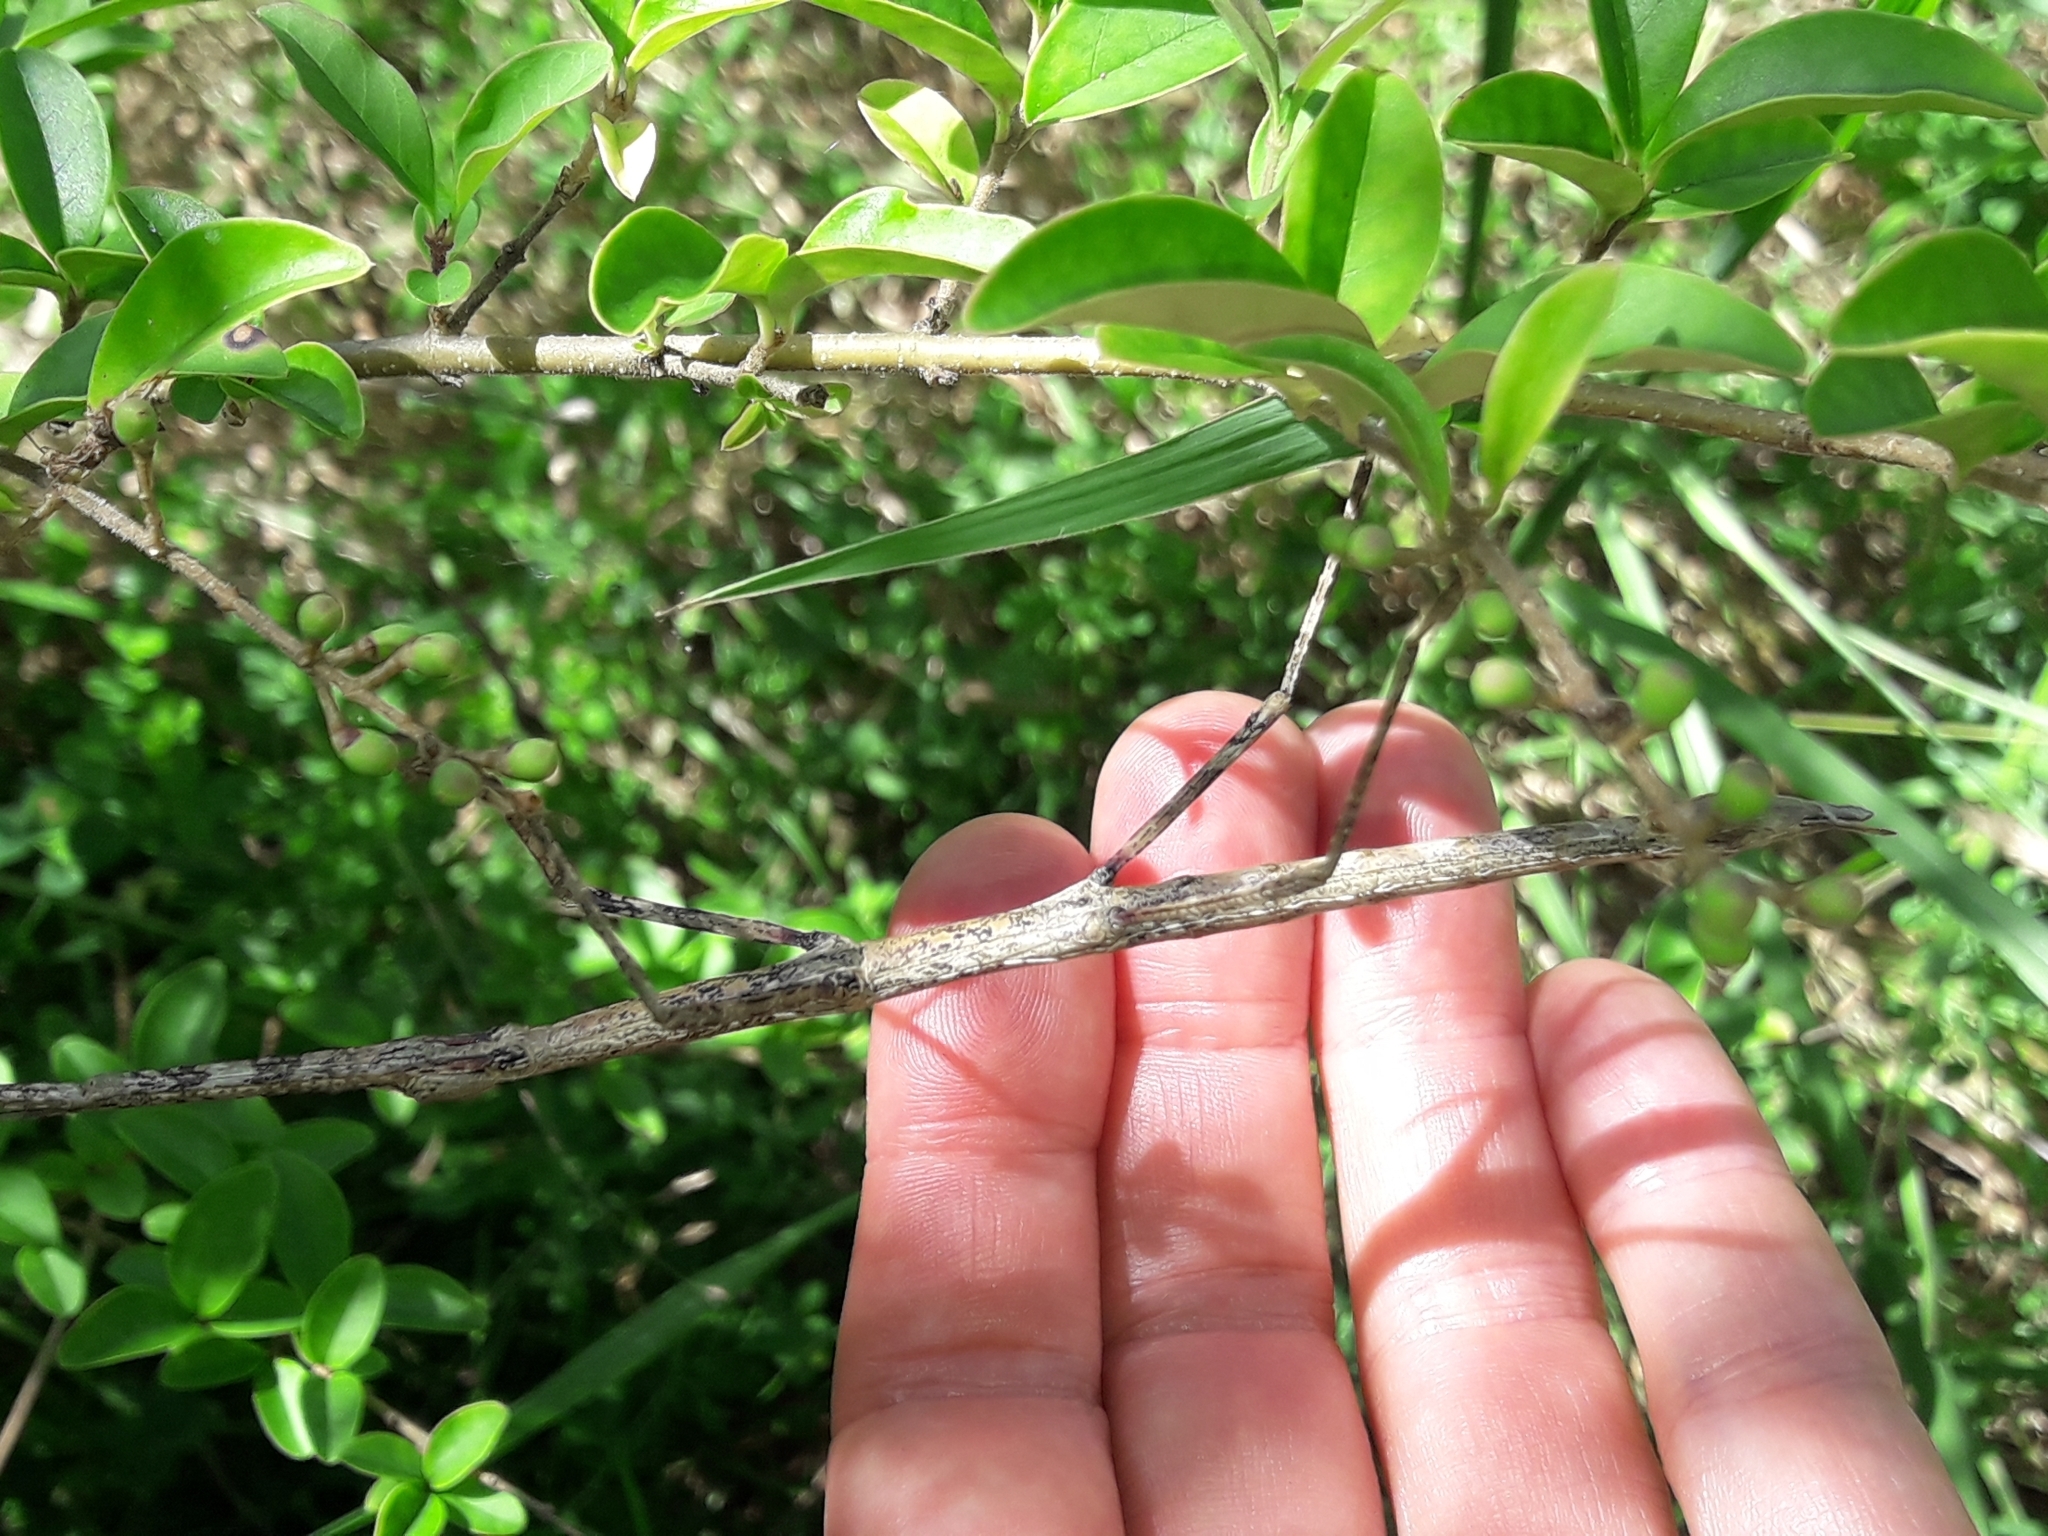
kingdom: Animalia
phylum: Arthropoda
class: Insecta
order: Phasmida
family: Phasmatidae
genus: Clitarchus
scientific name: Clitarchus hookeri
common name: Smooth stick insect
